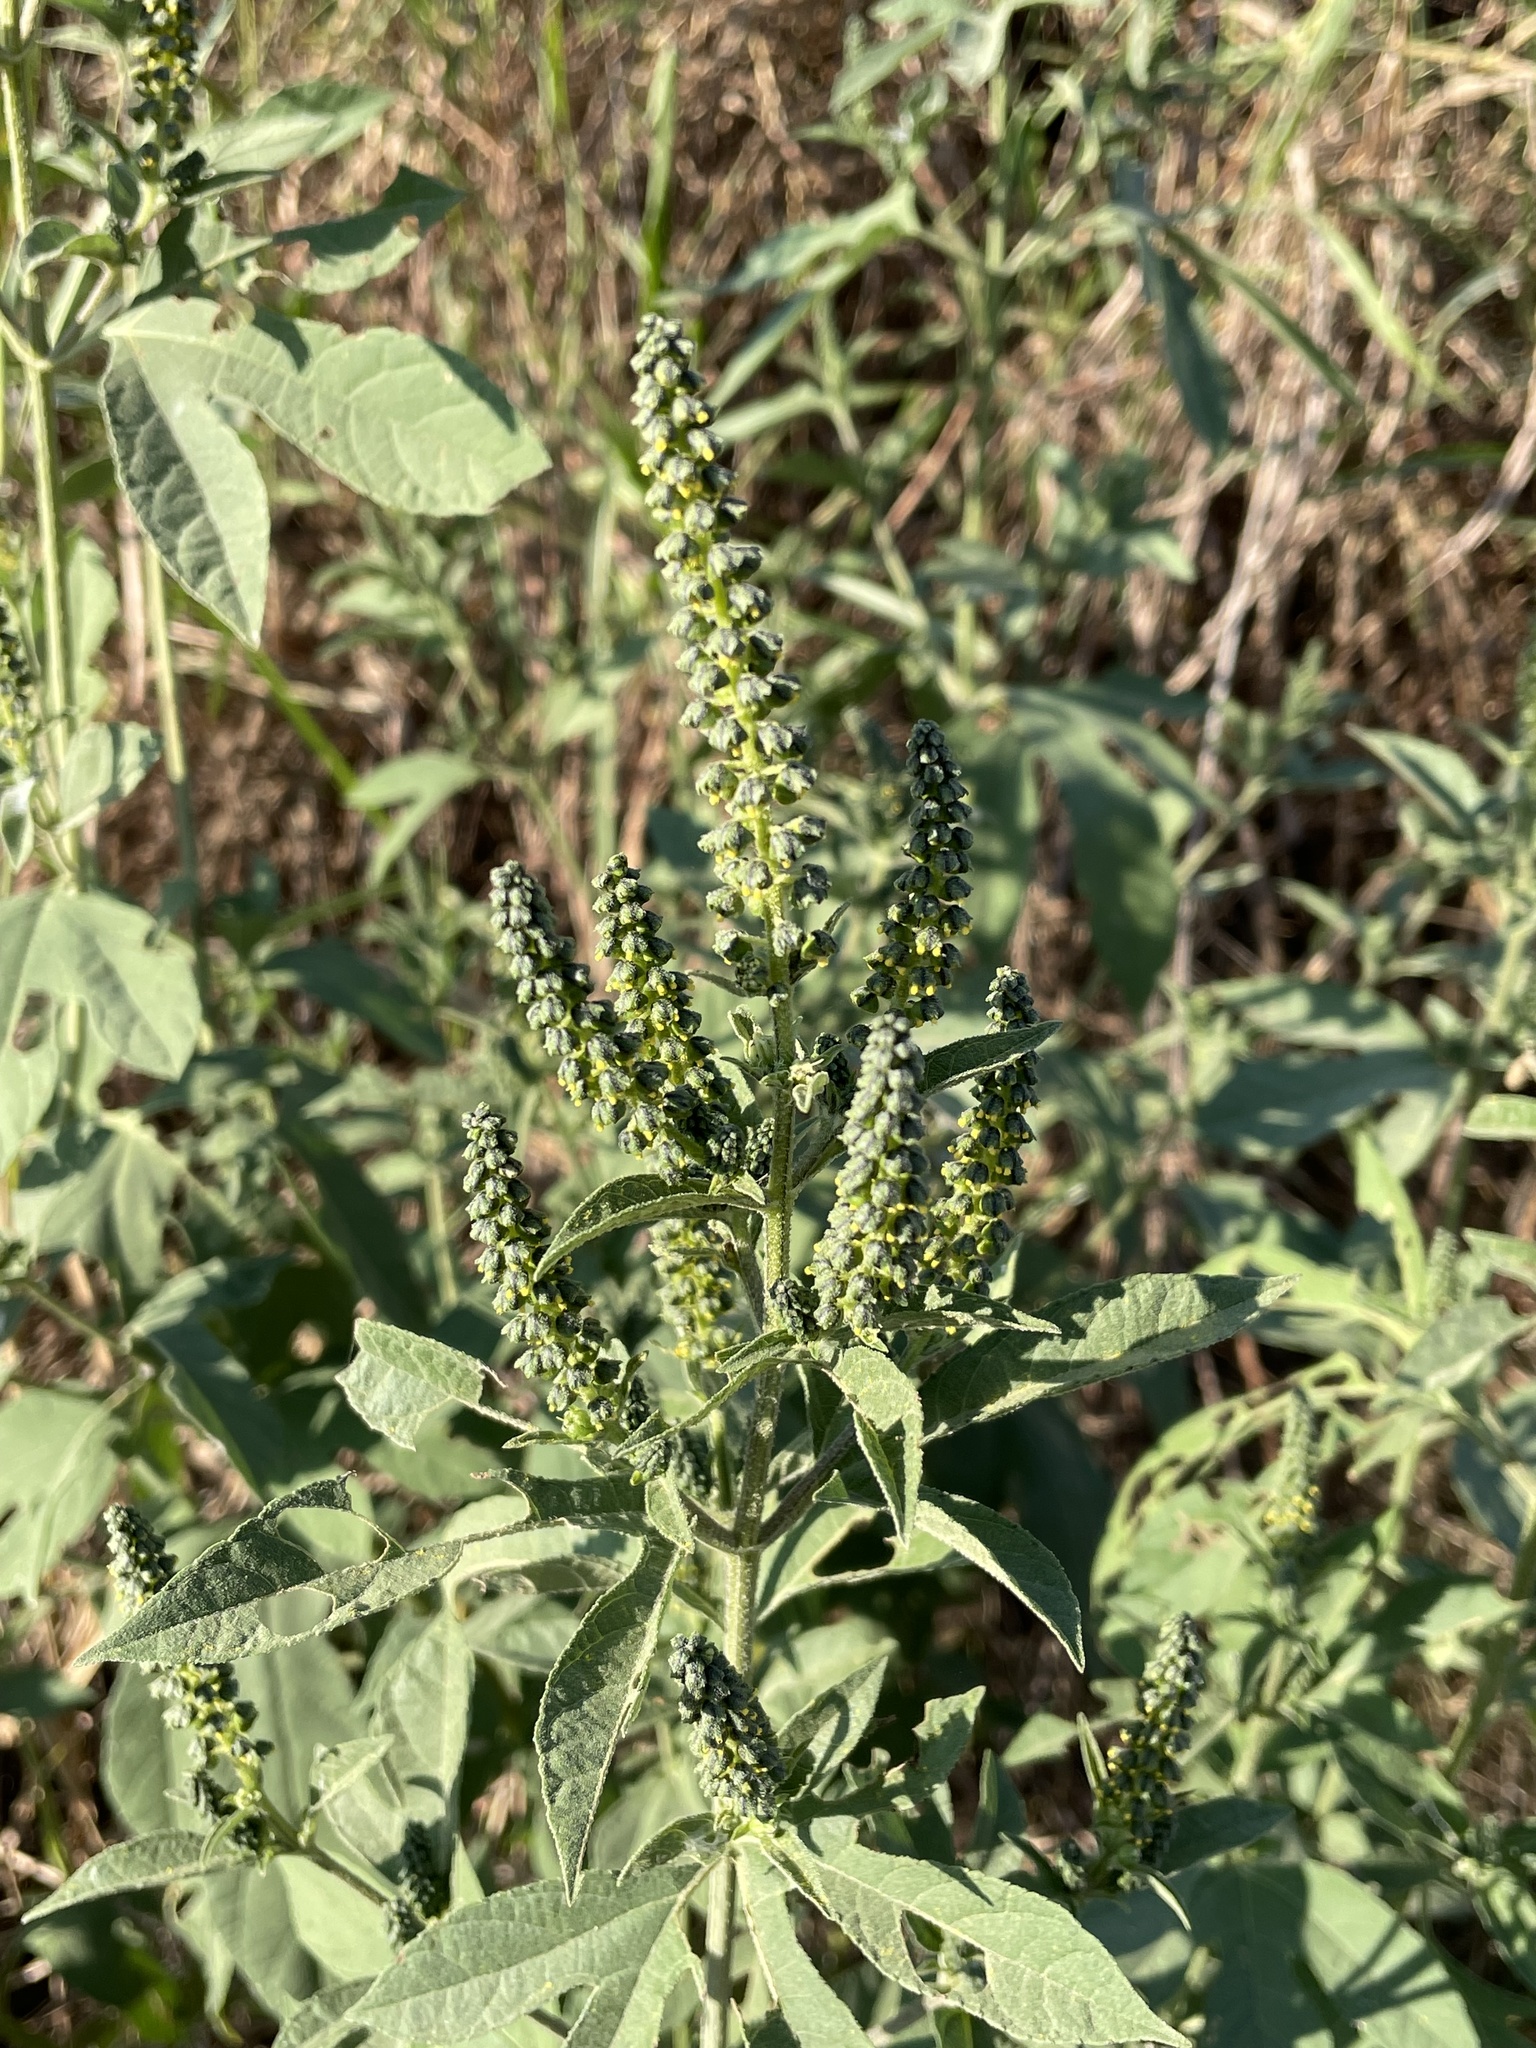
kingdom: Plantae
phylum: Tracheophyta
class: Magnoliopsida
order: Asterales
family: Asteraceae
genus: Ambrosia
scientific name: Ambrosia trifida
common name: Giant ragweed
